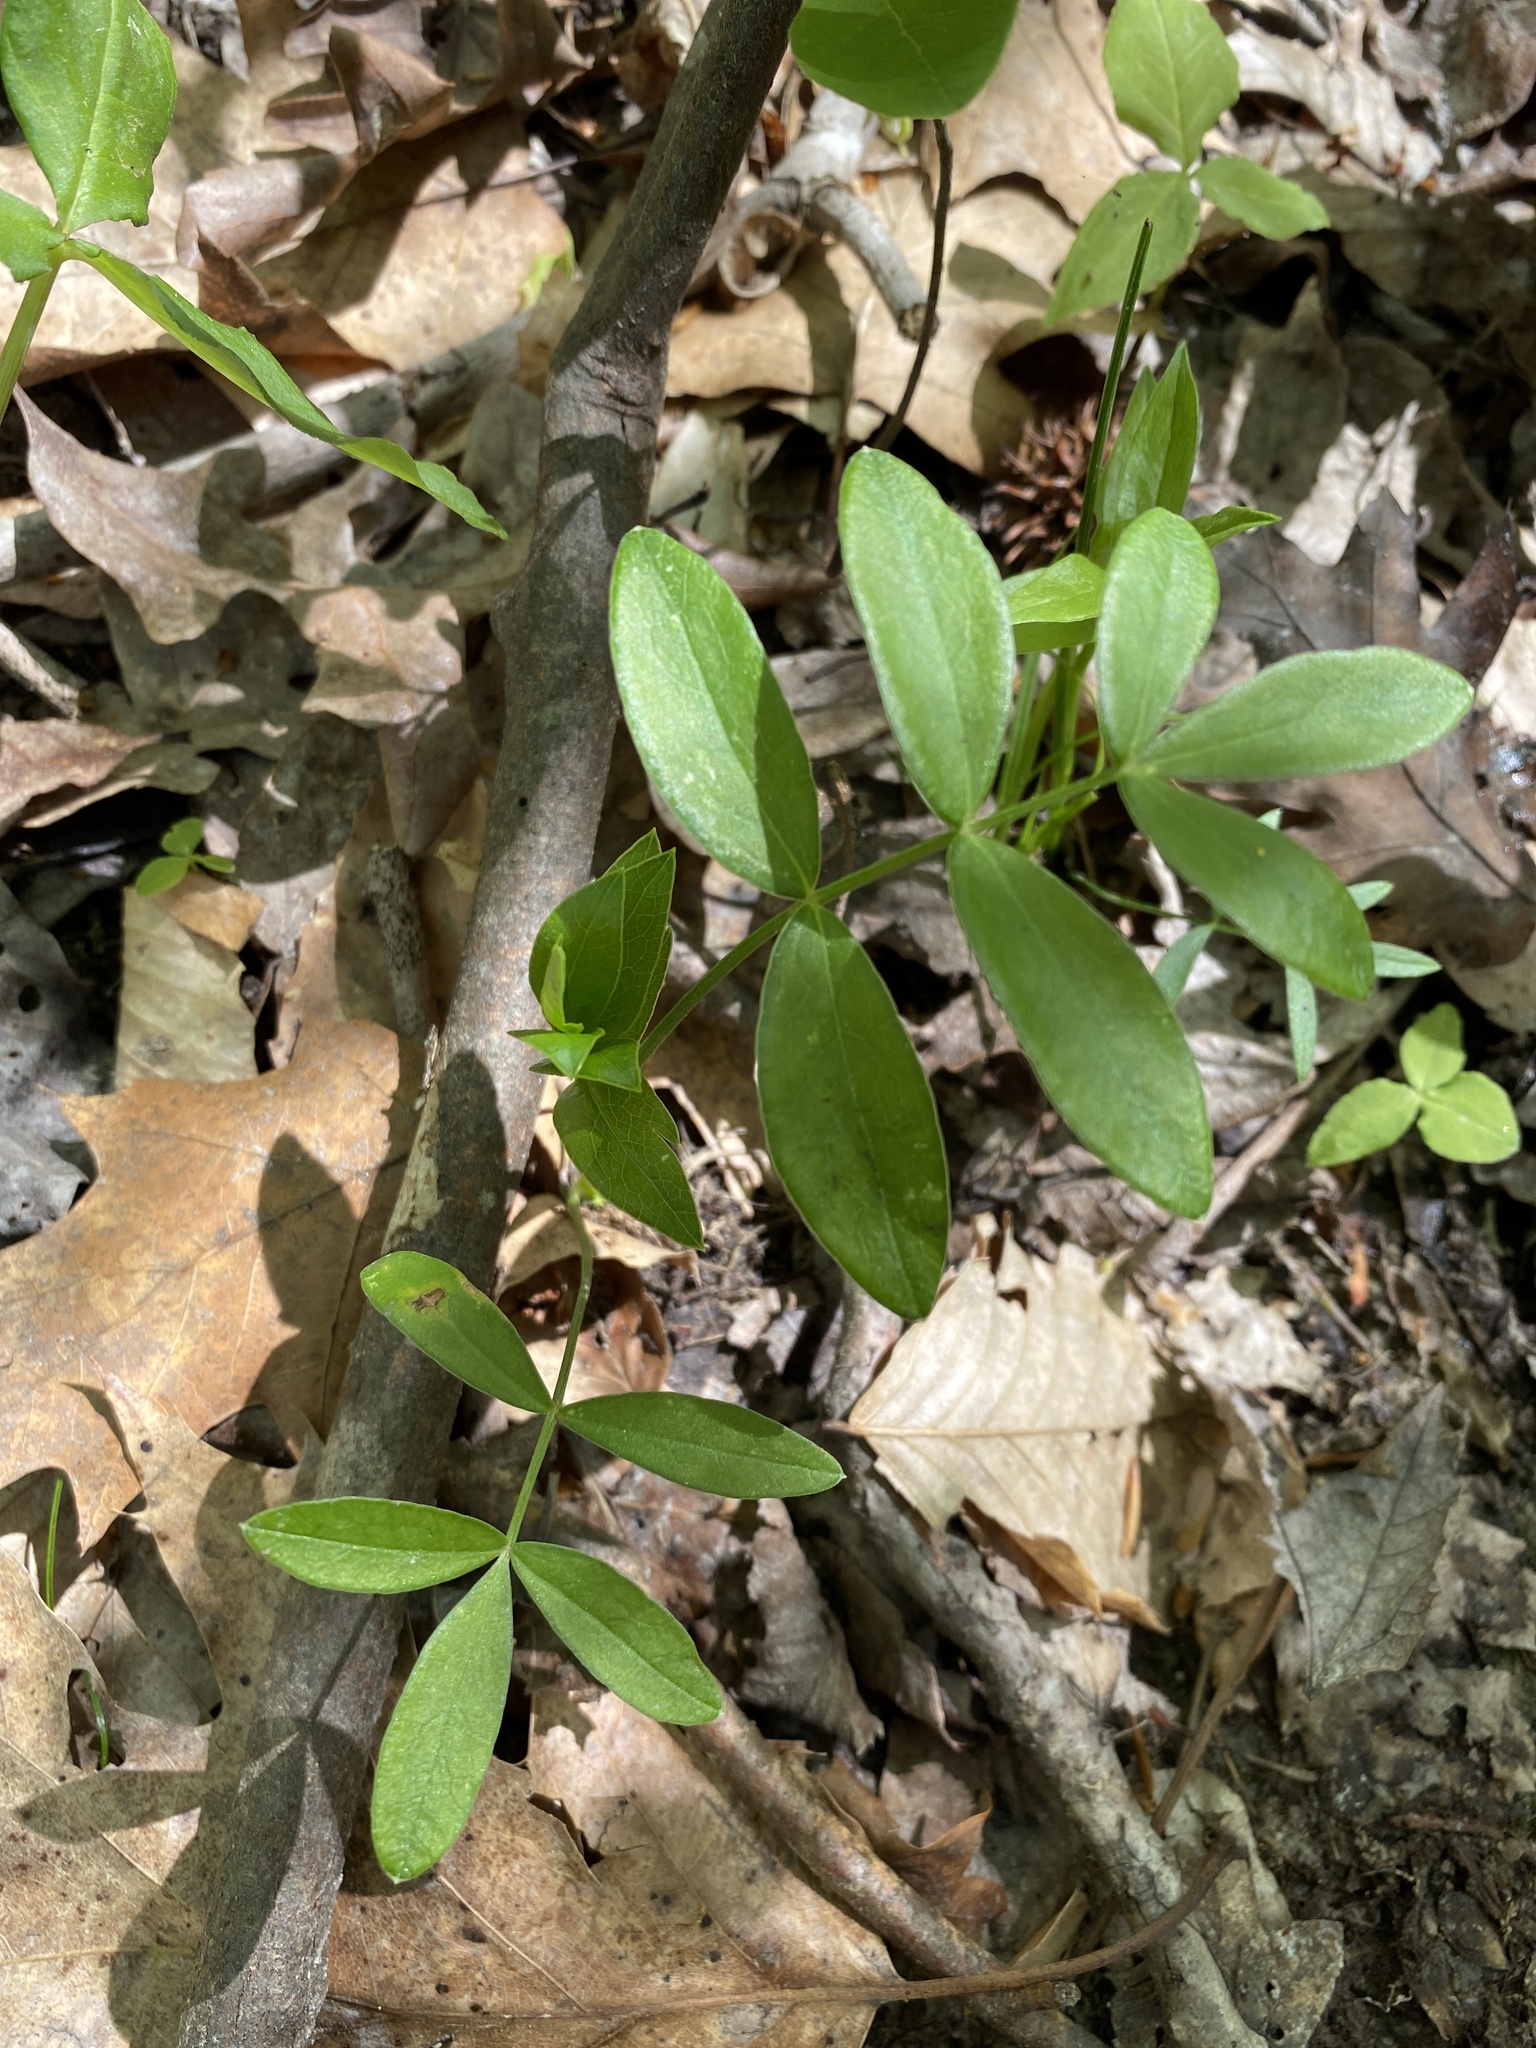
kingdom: Plantae
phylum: Tracheophyta
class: Magnoliopsida
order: Apiales
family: Apiaceae
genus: Oxypolis
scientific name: Oxypolis rigidior
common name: Cowbane
